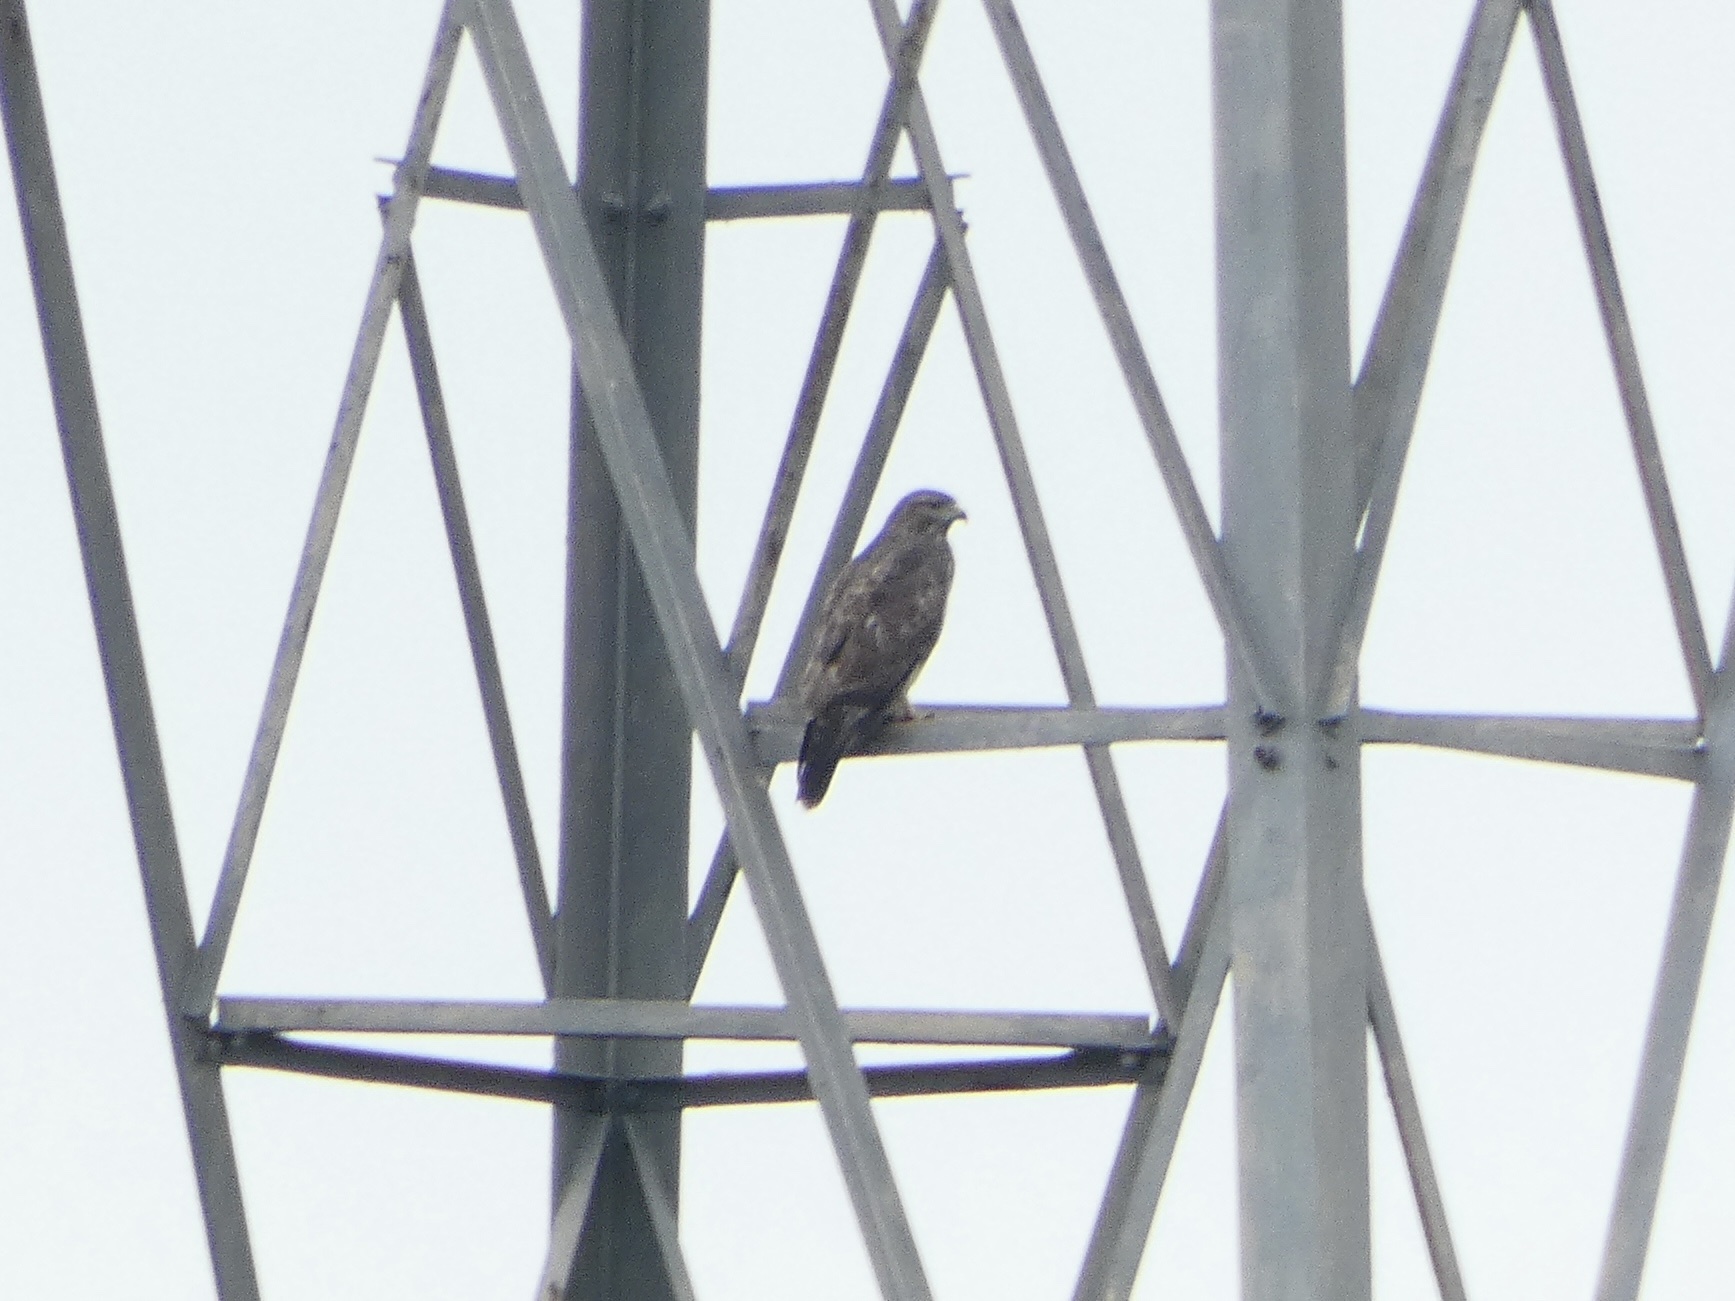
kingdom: Animalia
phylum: Chordata
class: Aves
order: Accipitriformes
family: Accipitridae
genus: Buteo
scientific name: Buteo buteo
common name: Common buzzard
